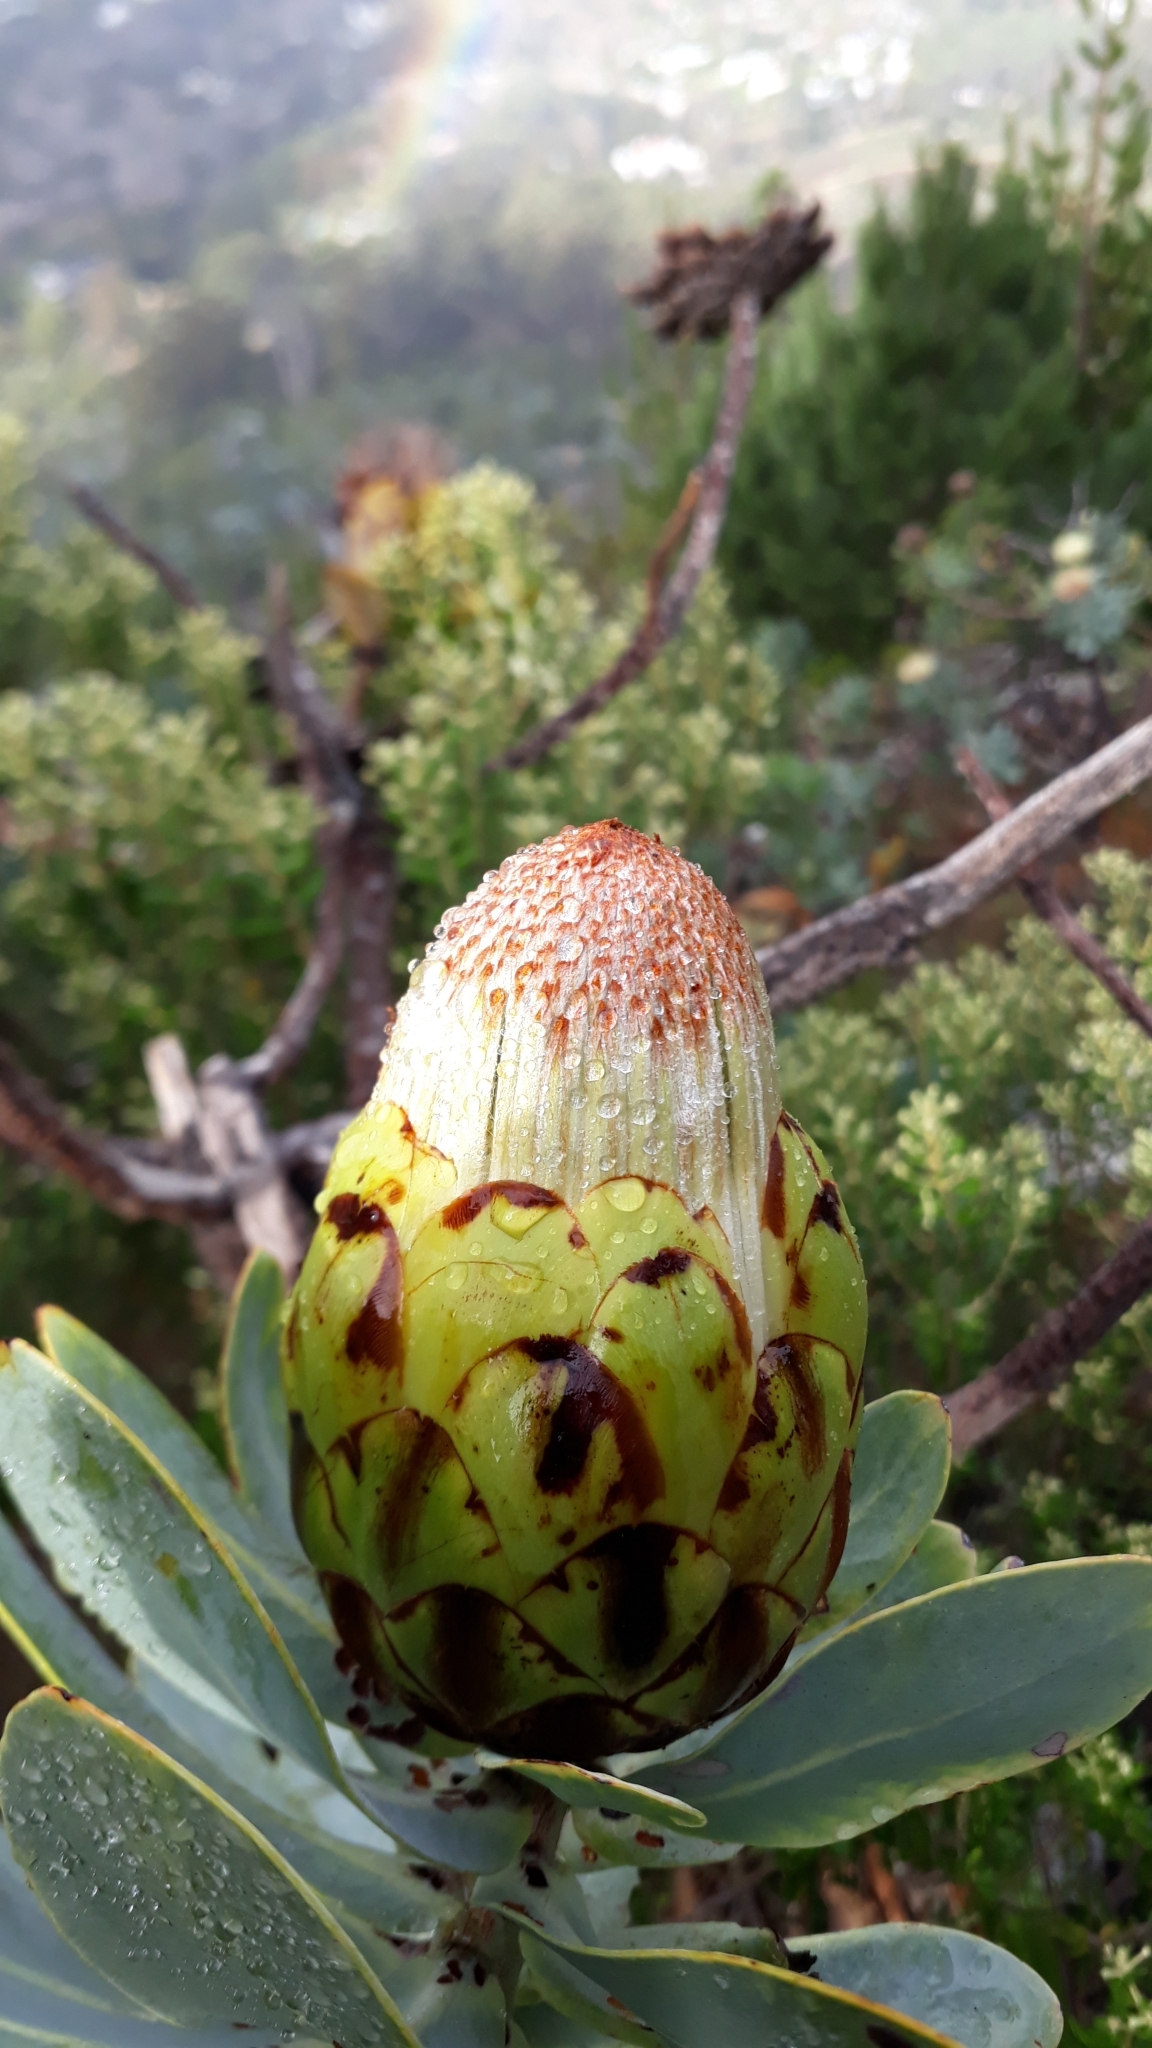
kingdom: Plantae
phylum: Tracheophyta
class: Magnoliopsida
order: Proteales
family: Proteaceae
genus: Protea
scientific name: Protea nitida
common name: Tree protea
